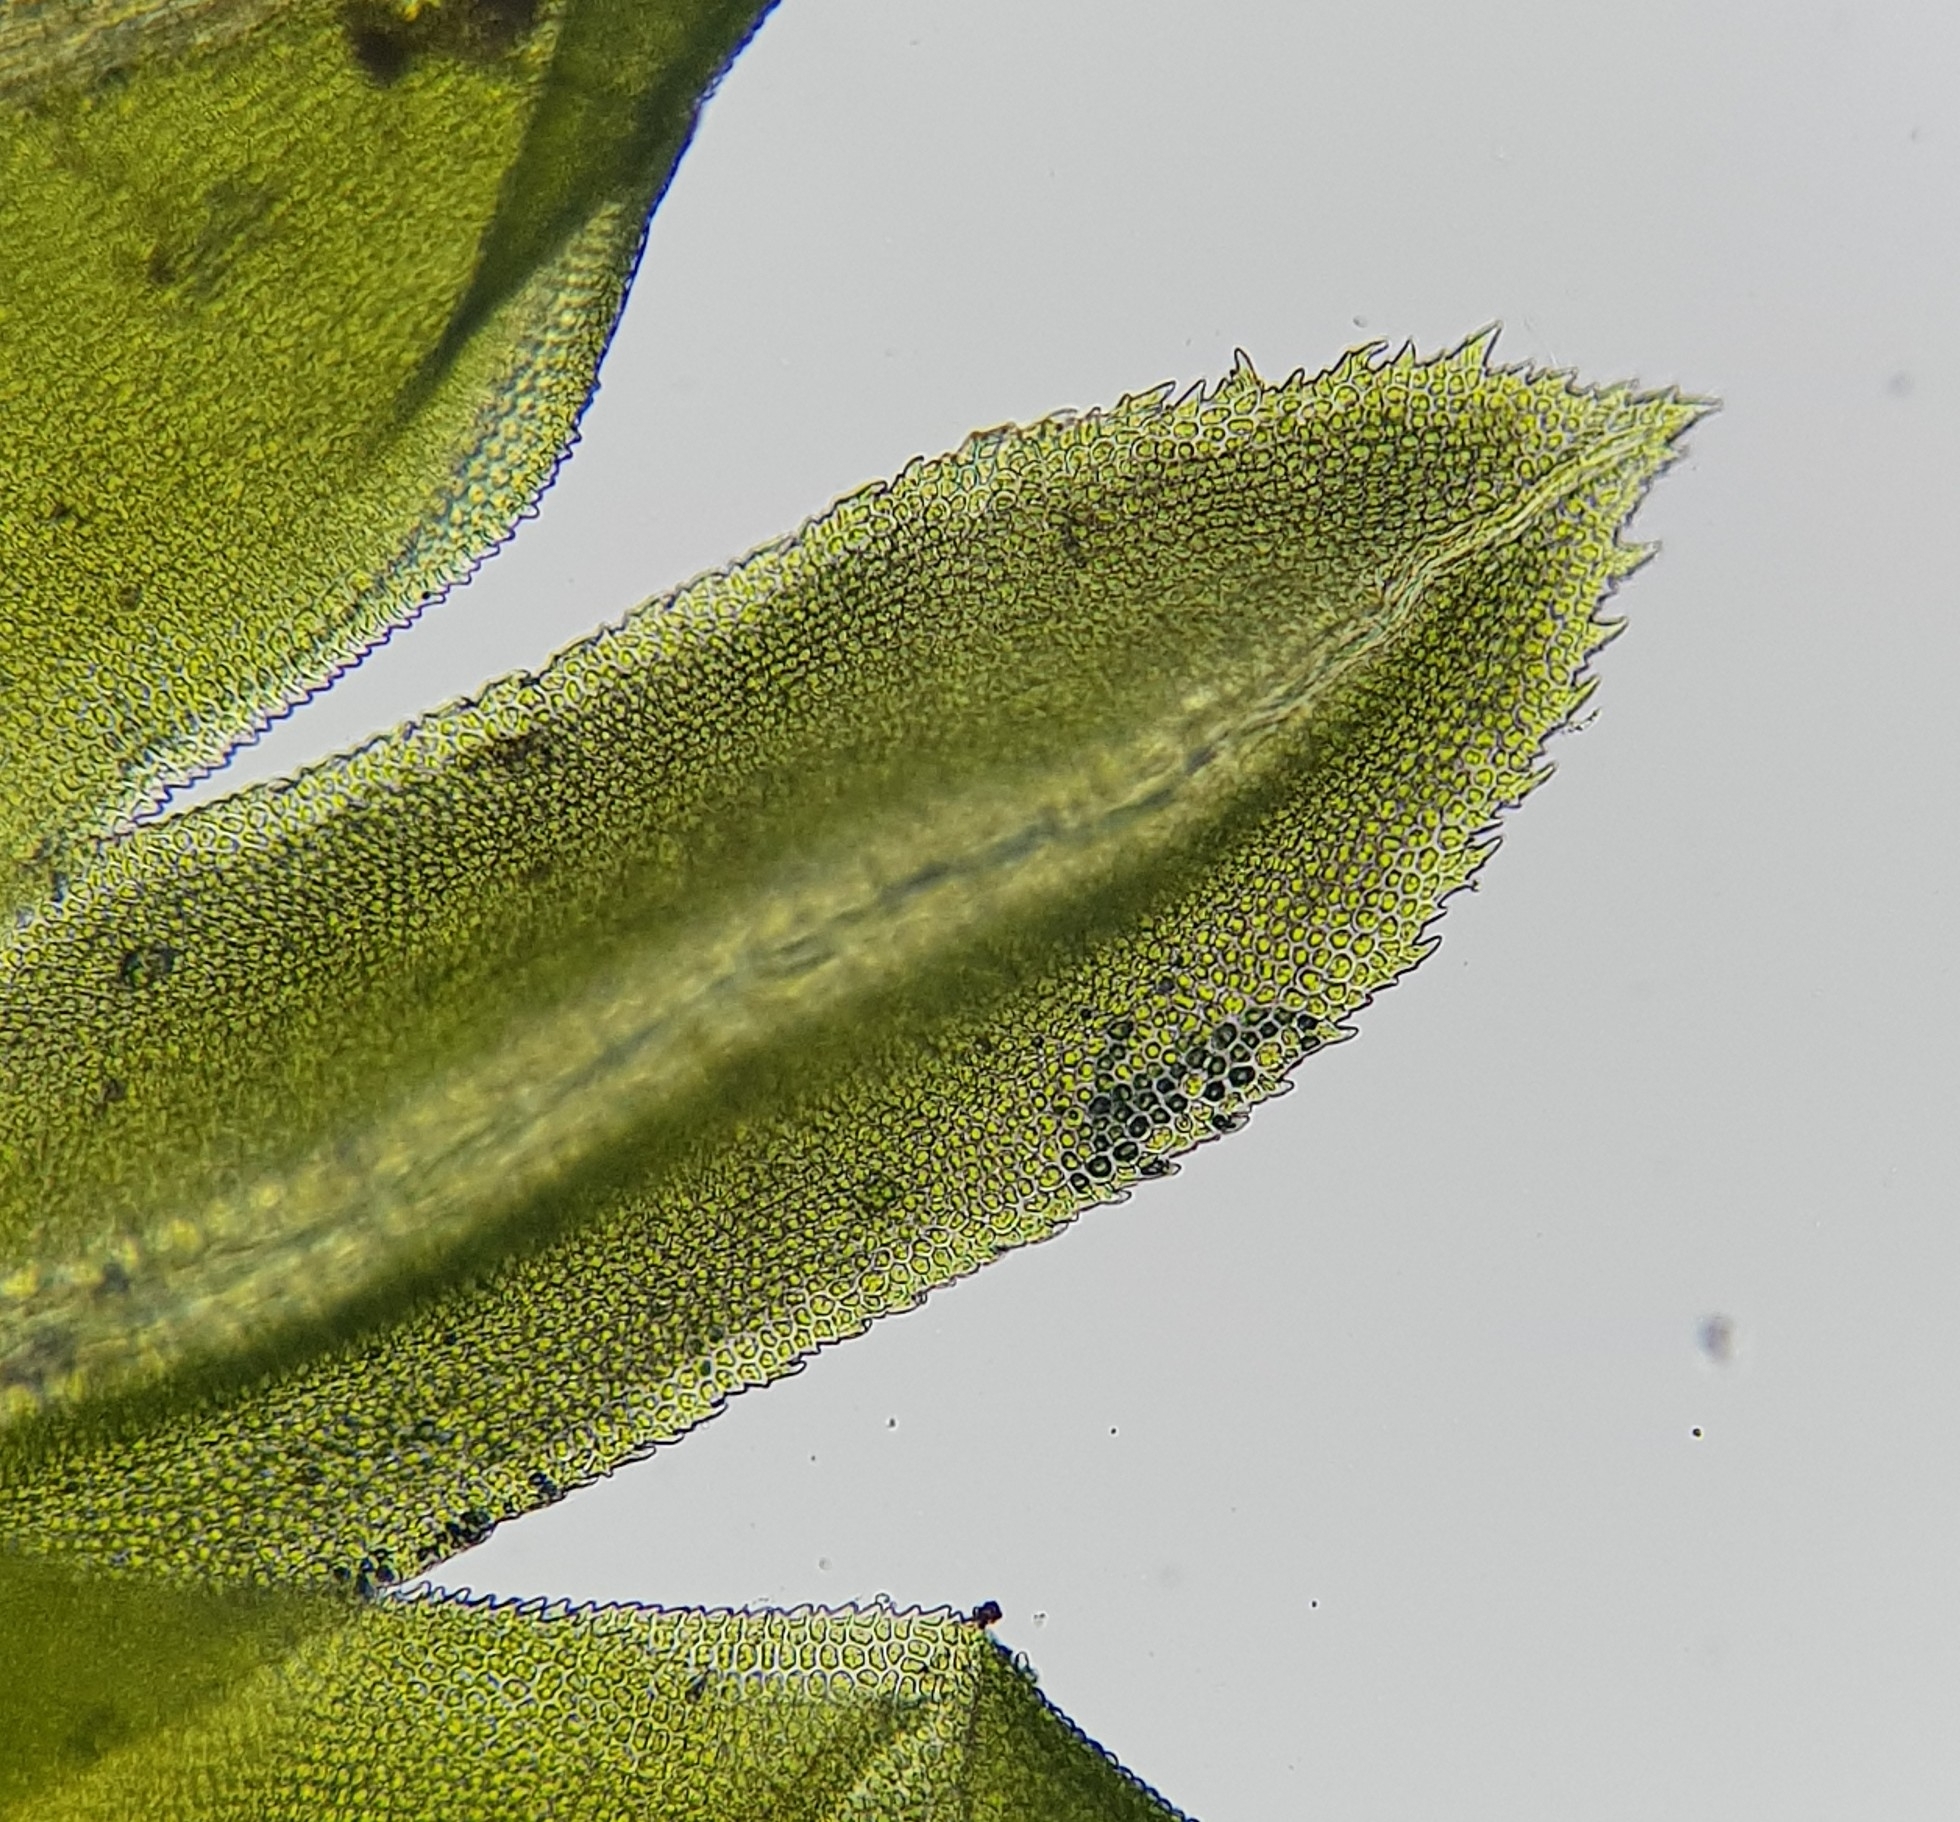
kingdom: Plantae
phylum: Bryophyta
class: Bryopsida
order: Dicranales
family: Fissidentaceae
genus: Fissidens
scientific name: Fissidens dubius
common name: Rock pocket moss
